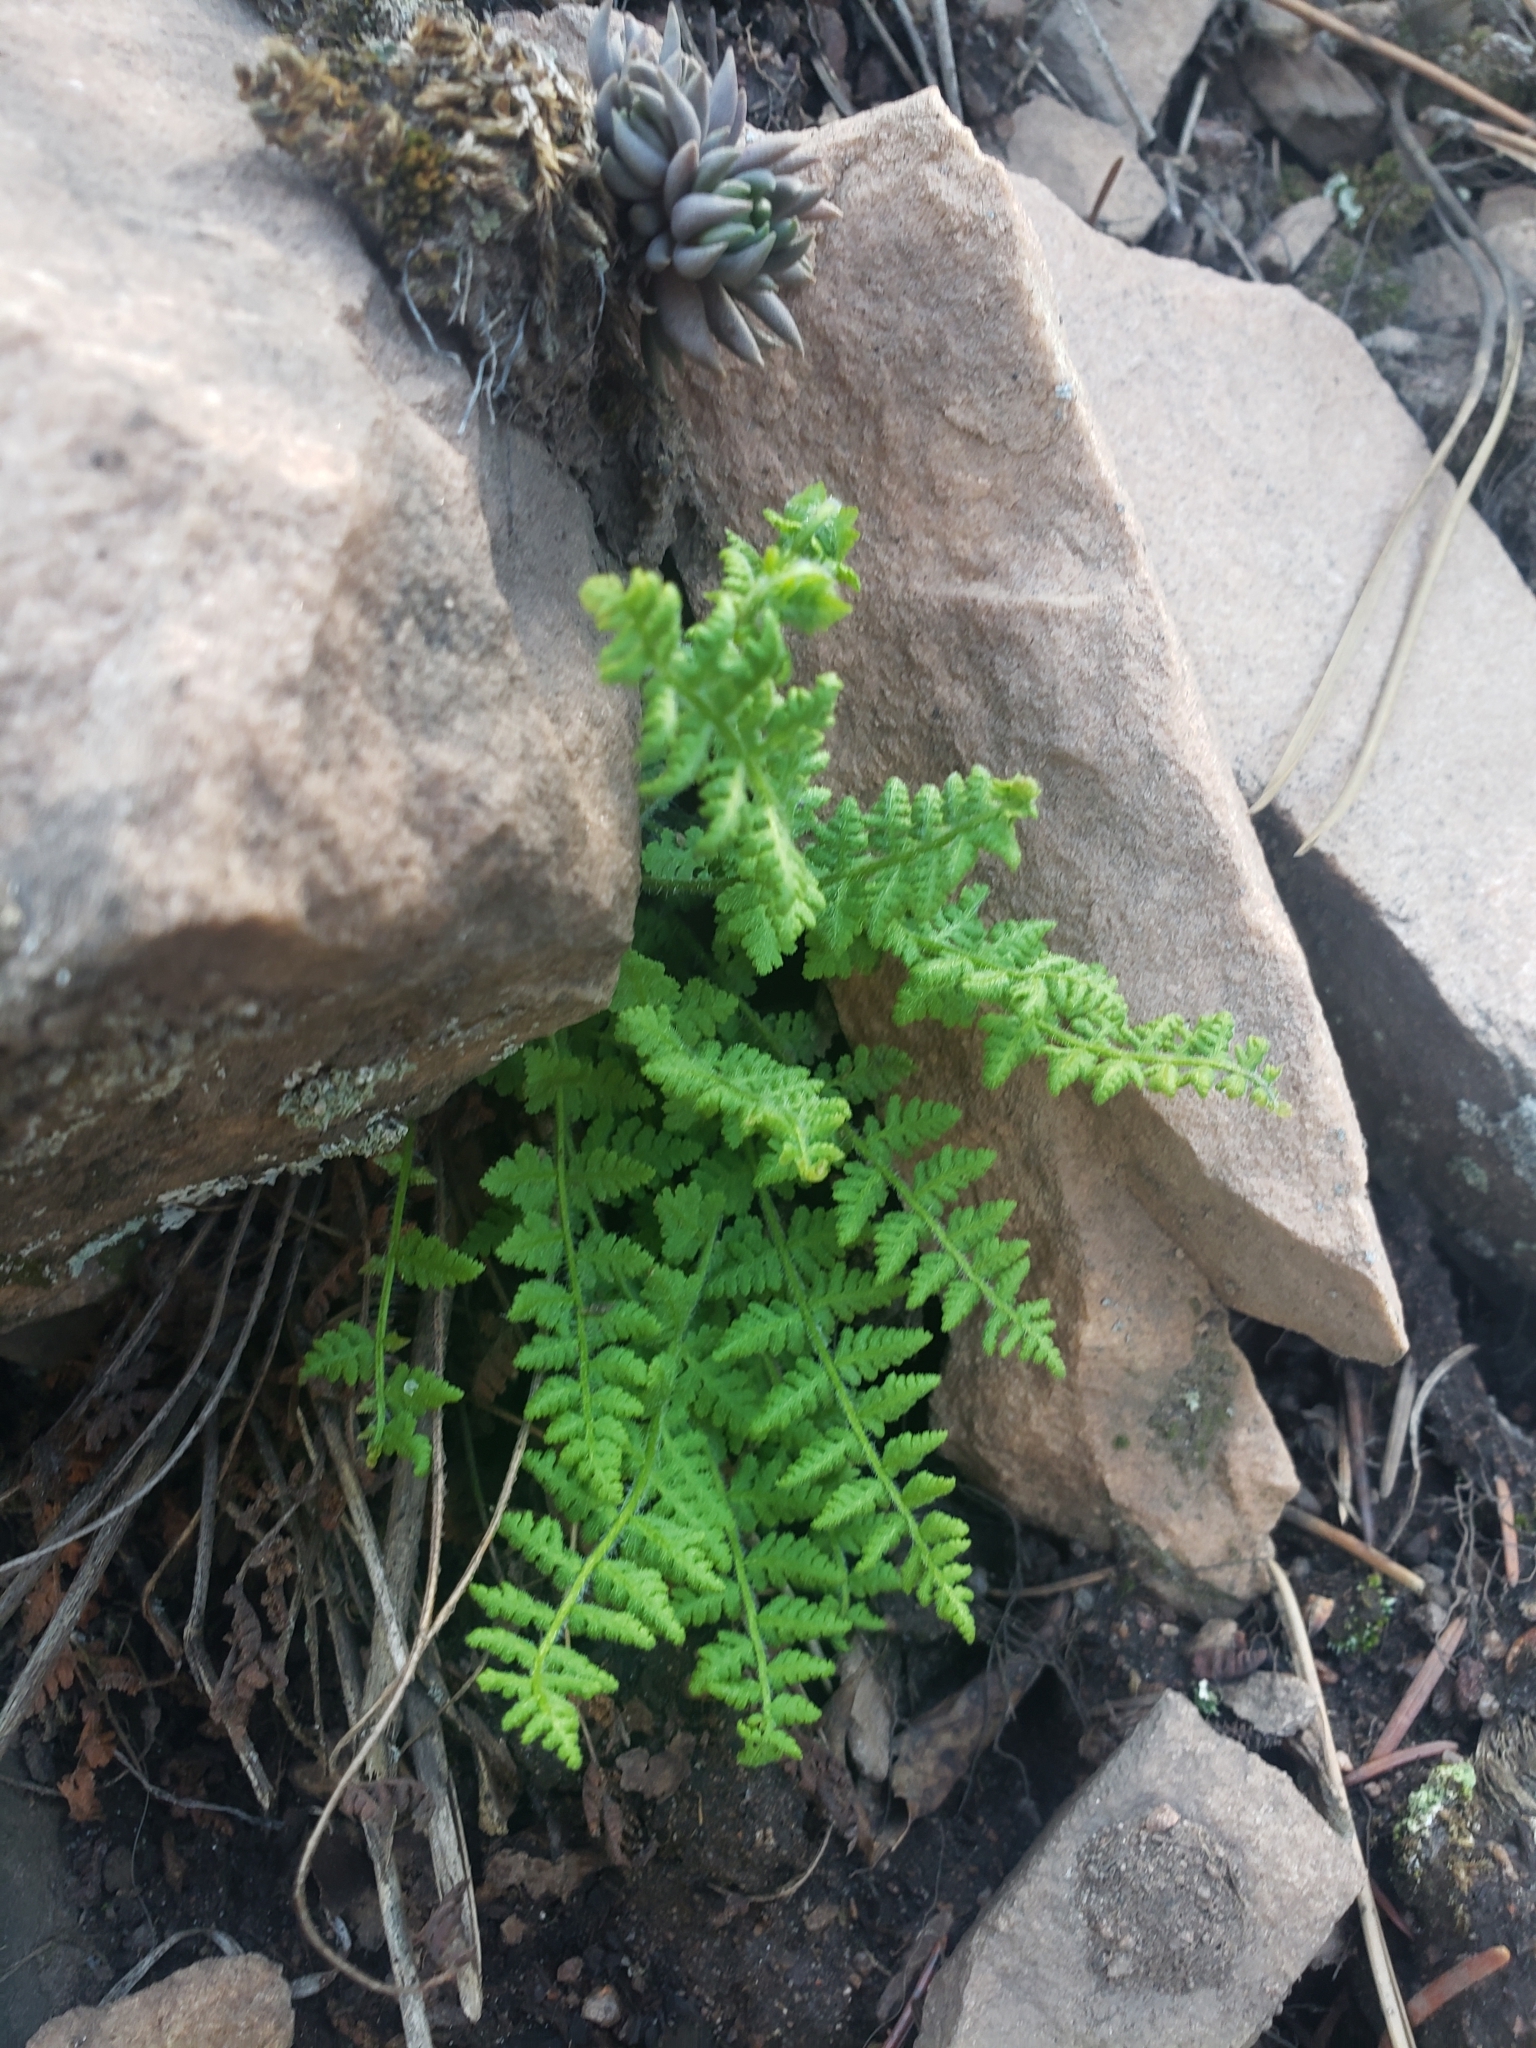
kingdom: Plantae
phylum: Tracheophyta
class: Polypodiopsida
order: Polypodiales
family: Woodsiaceae
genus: Physematium
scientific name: Physematium scopulinum
